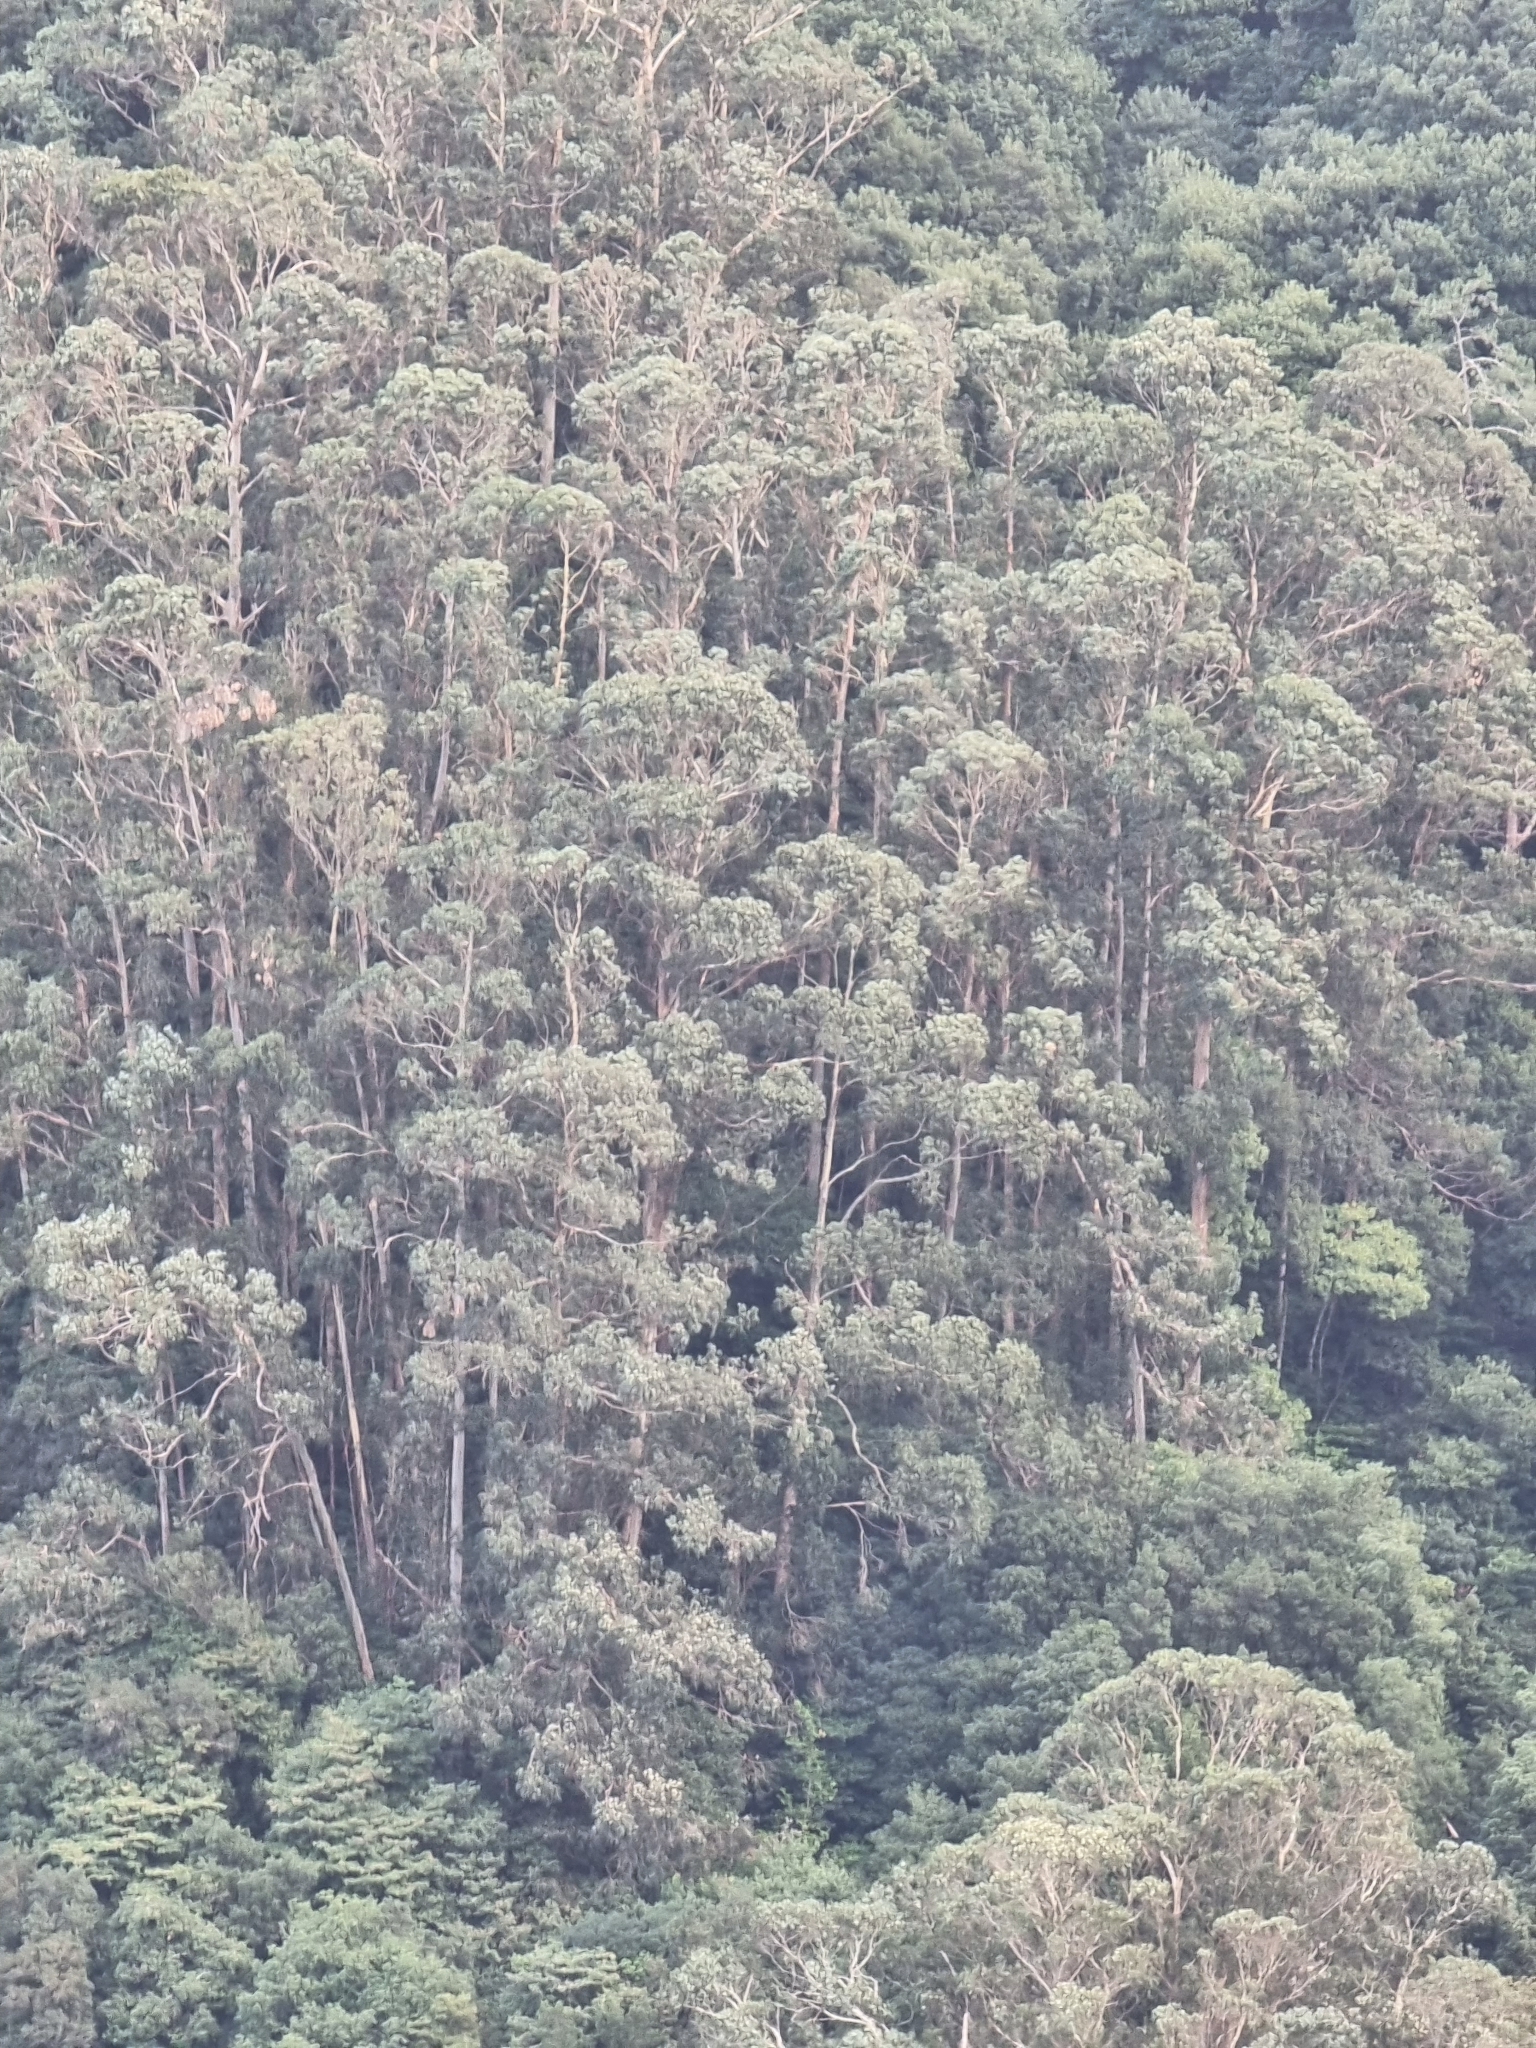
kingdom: Plantae
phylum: Tracheophyta
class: Magnoliopsida
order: Myrtales
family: Myrtaceae
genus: Eucalyptus
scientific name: Eucalyptus globulus
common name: Southern blue-gum
